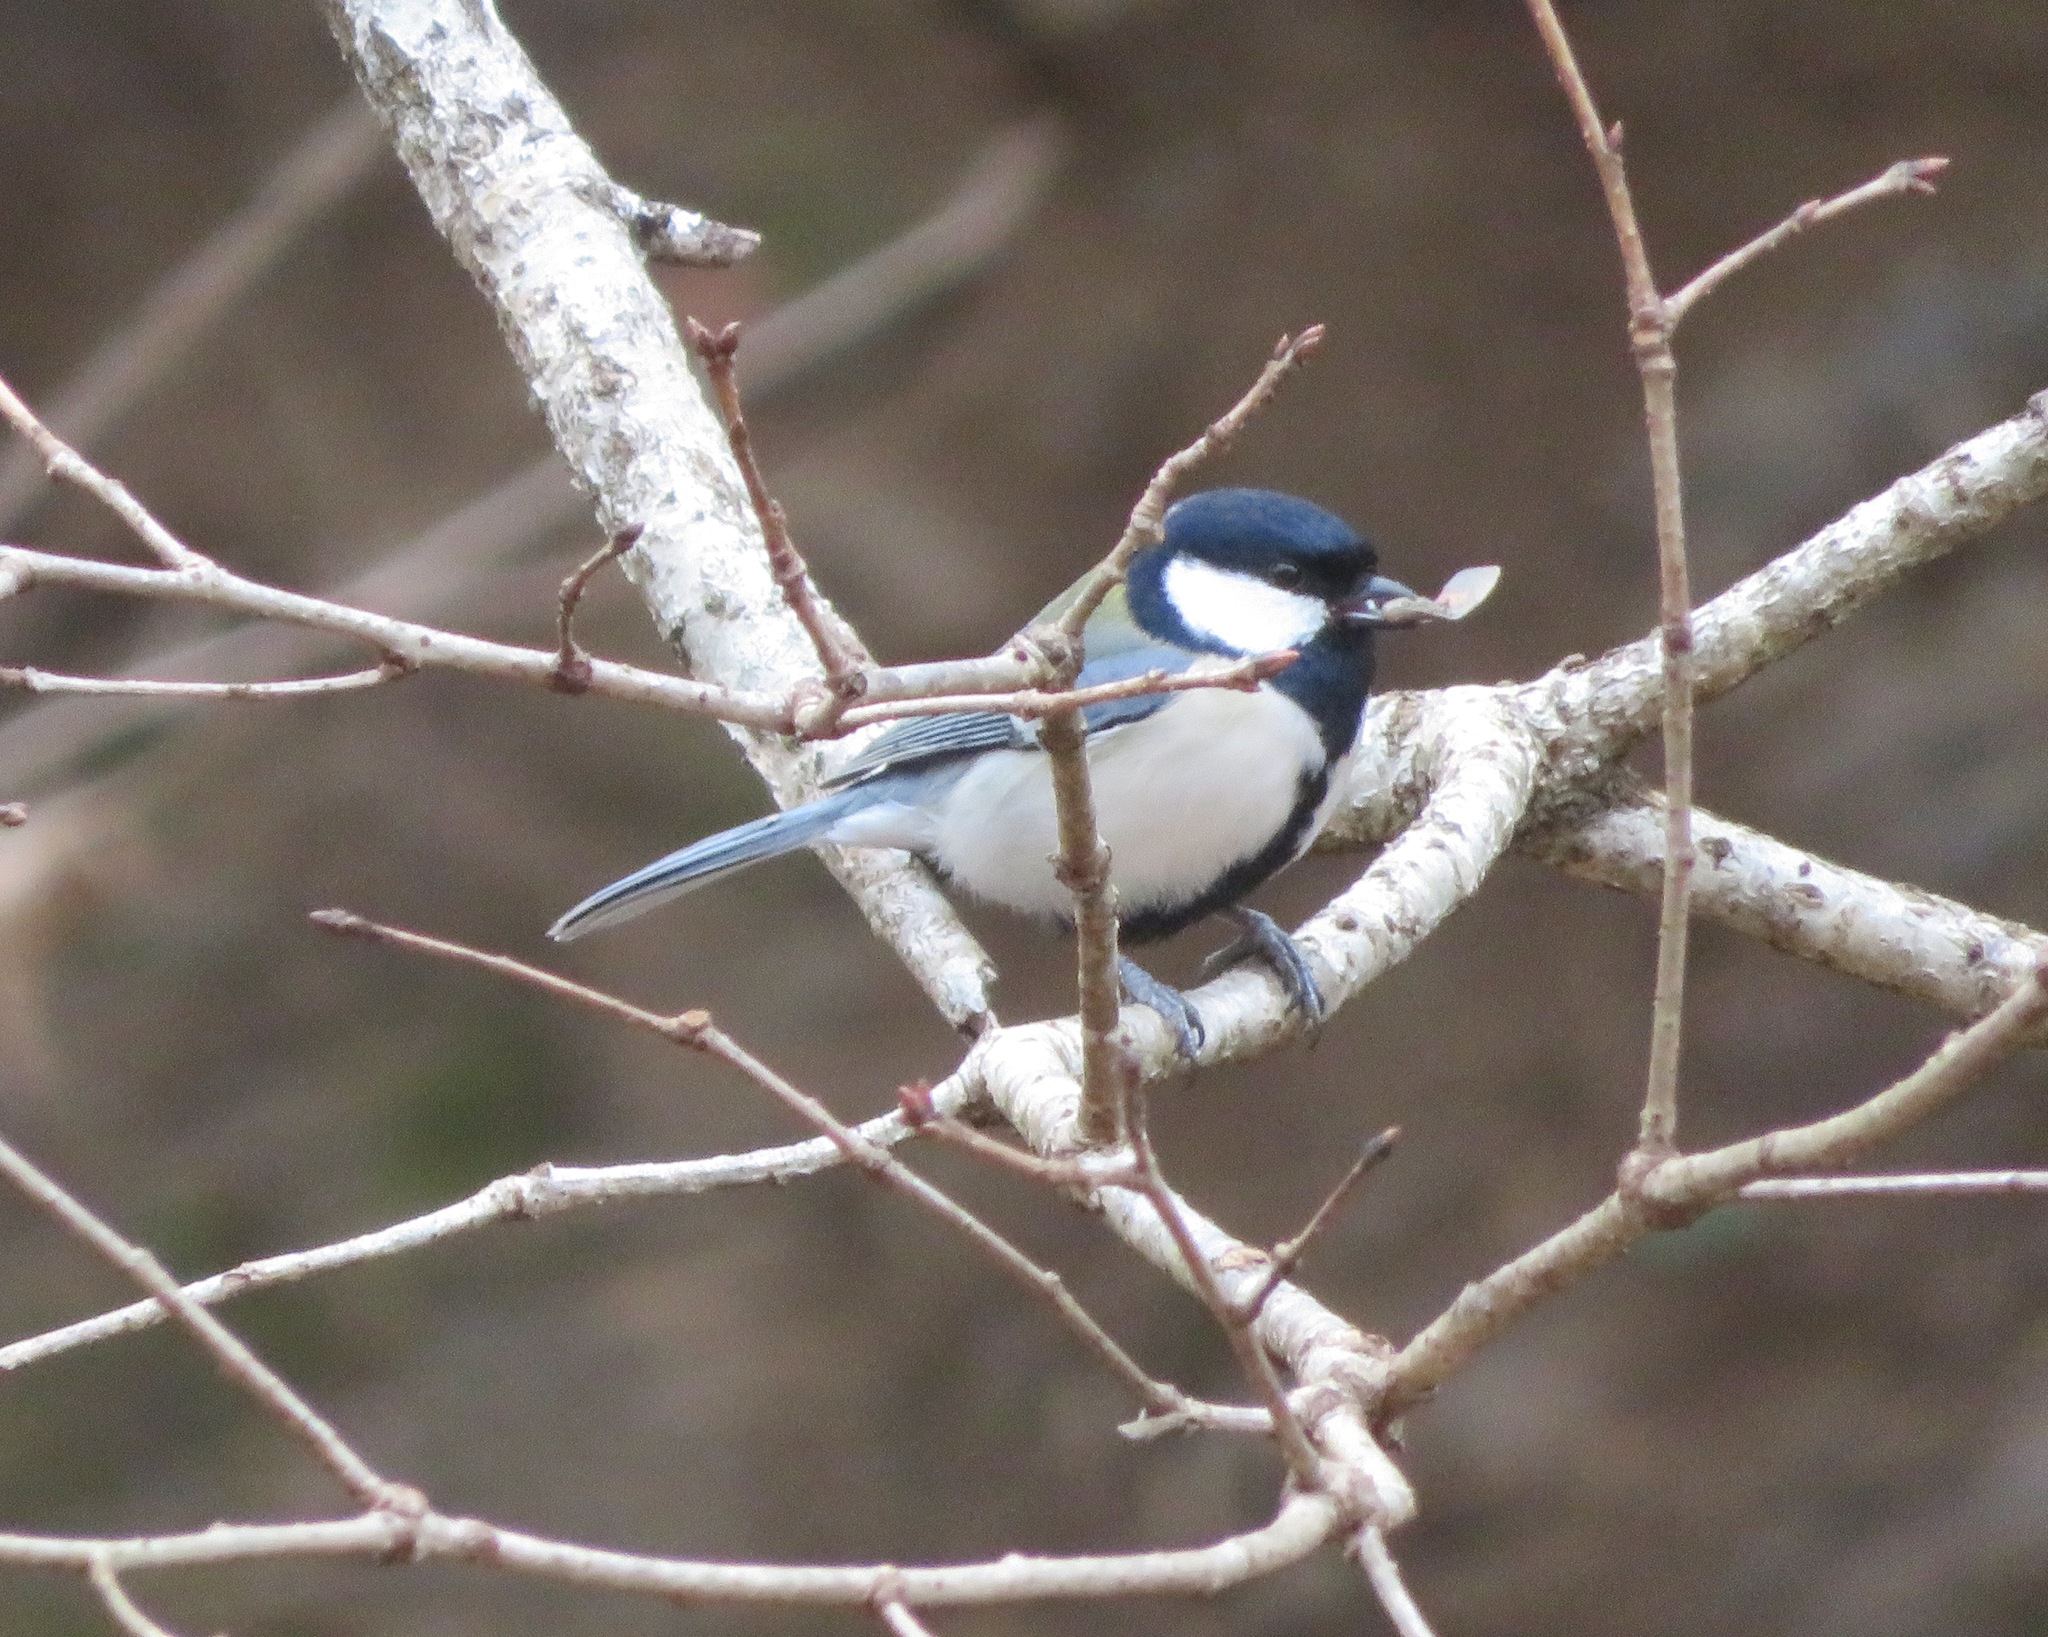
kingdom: Animalia
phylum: Chordata
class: Aves
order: Passeriformes
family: Paridae
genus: Parus
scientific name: Parus minor
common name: Japanese tit
